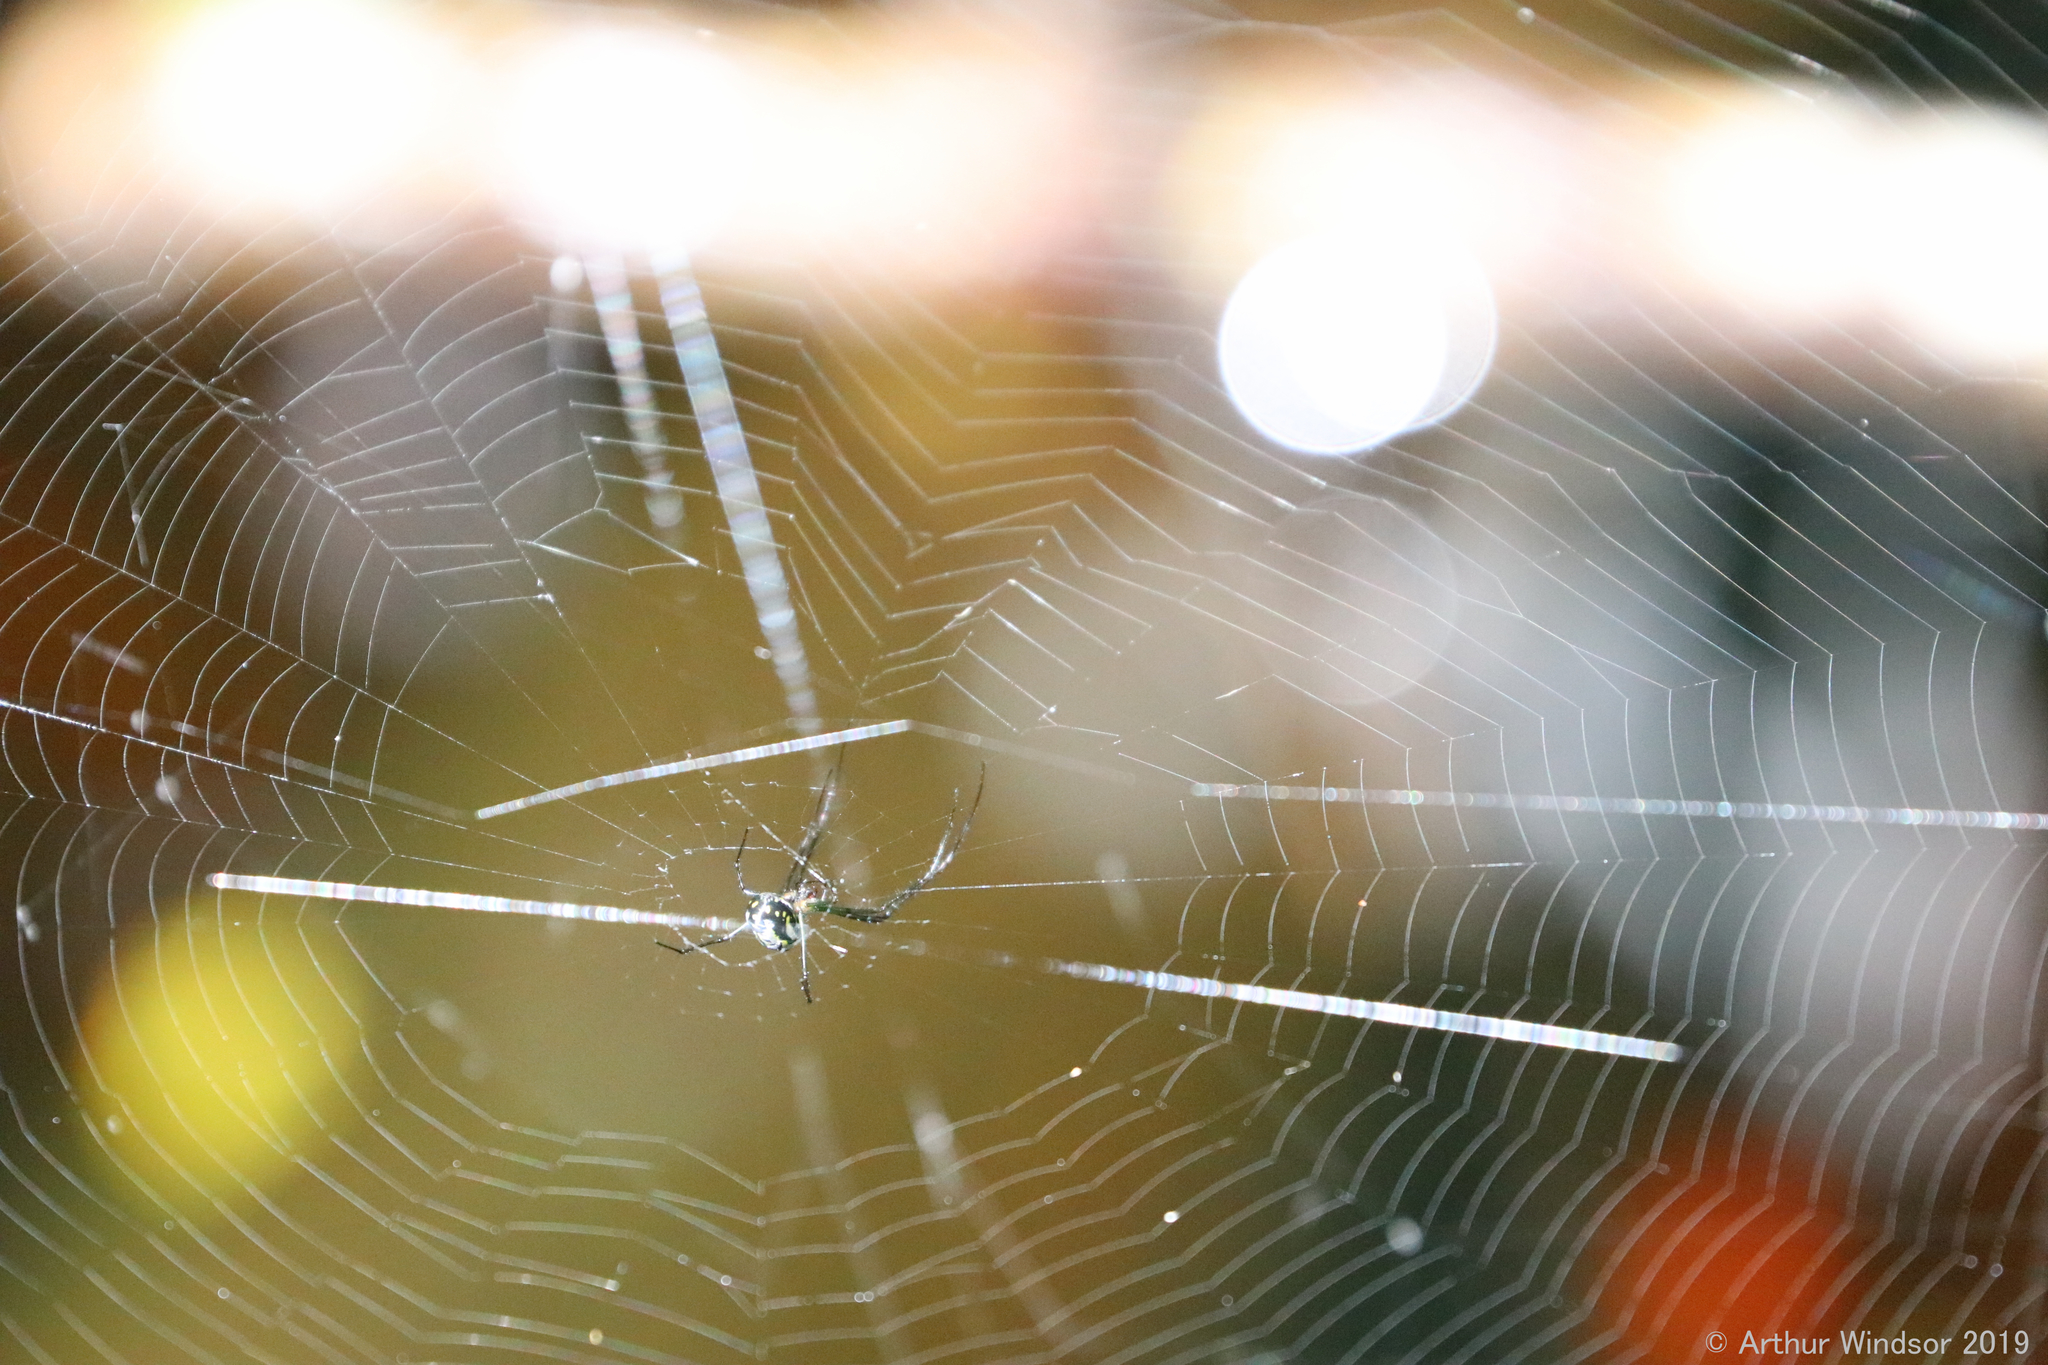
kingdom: Animalia
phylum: Arthropoda
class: Arachnida
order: Araneae
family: Tetragnathidae
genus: Leucauge
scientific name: Leucauge argyra
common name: Longjawed orb weavers
